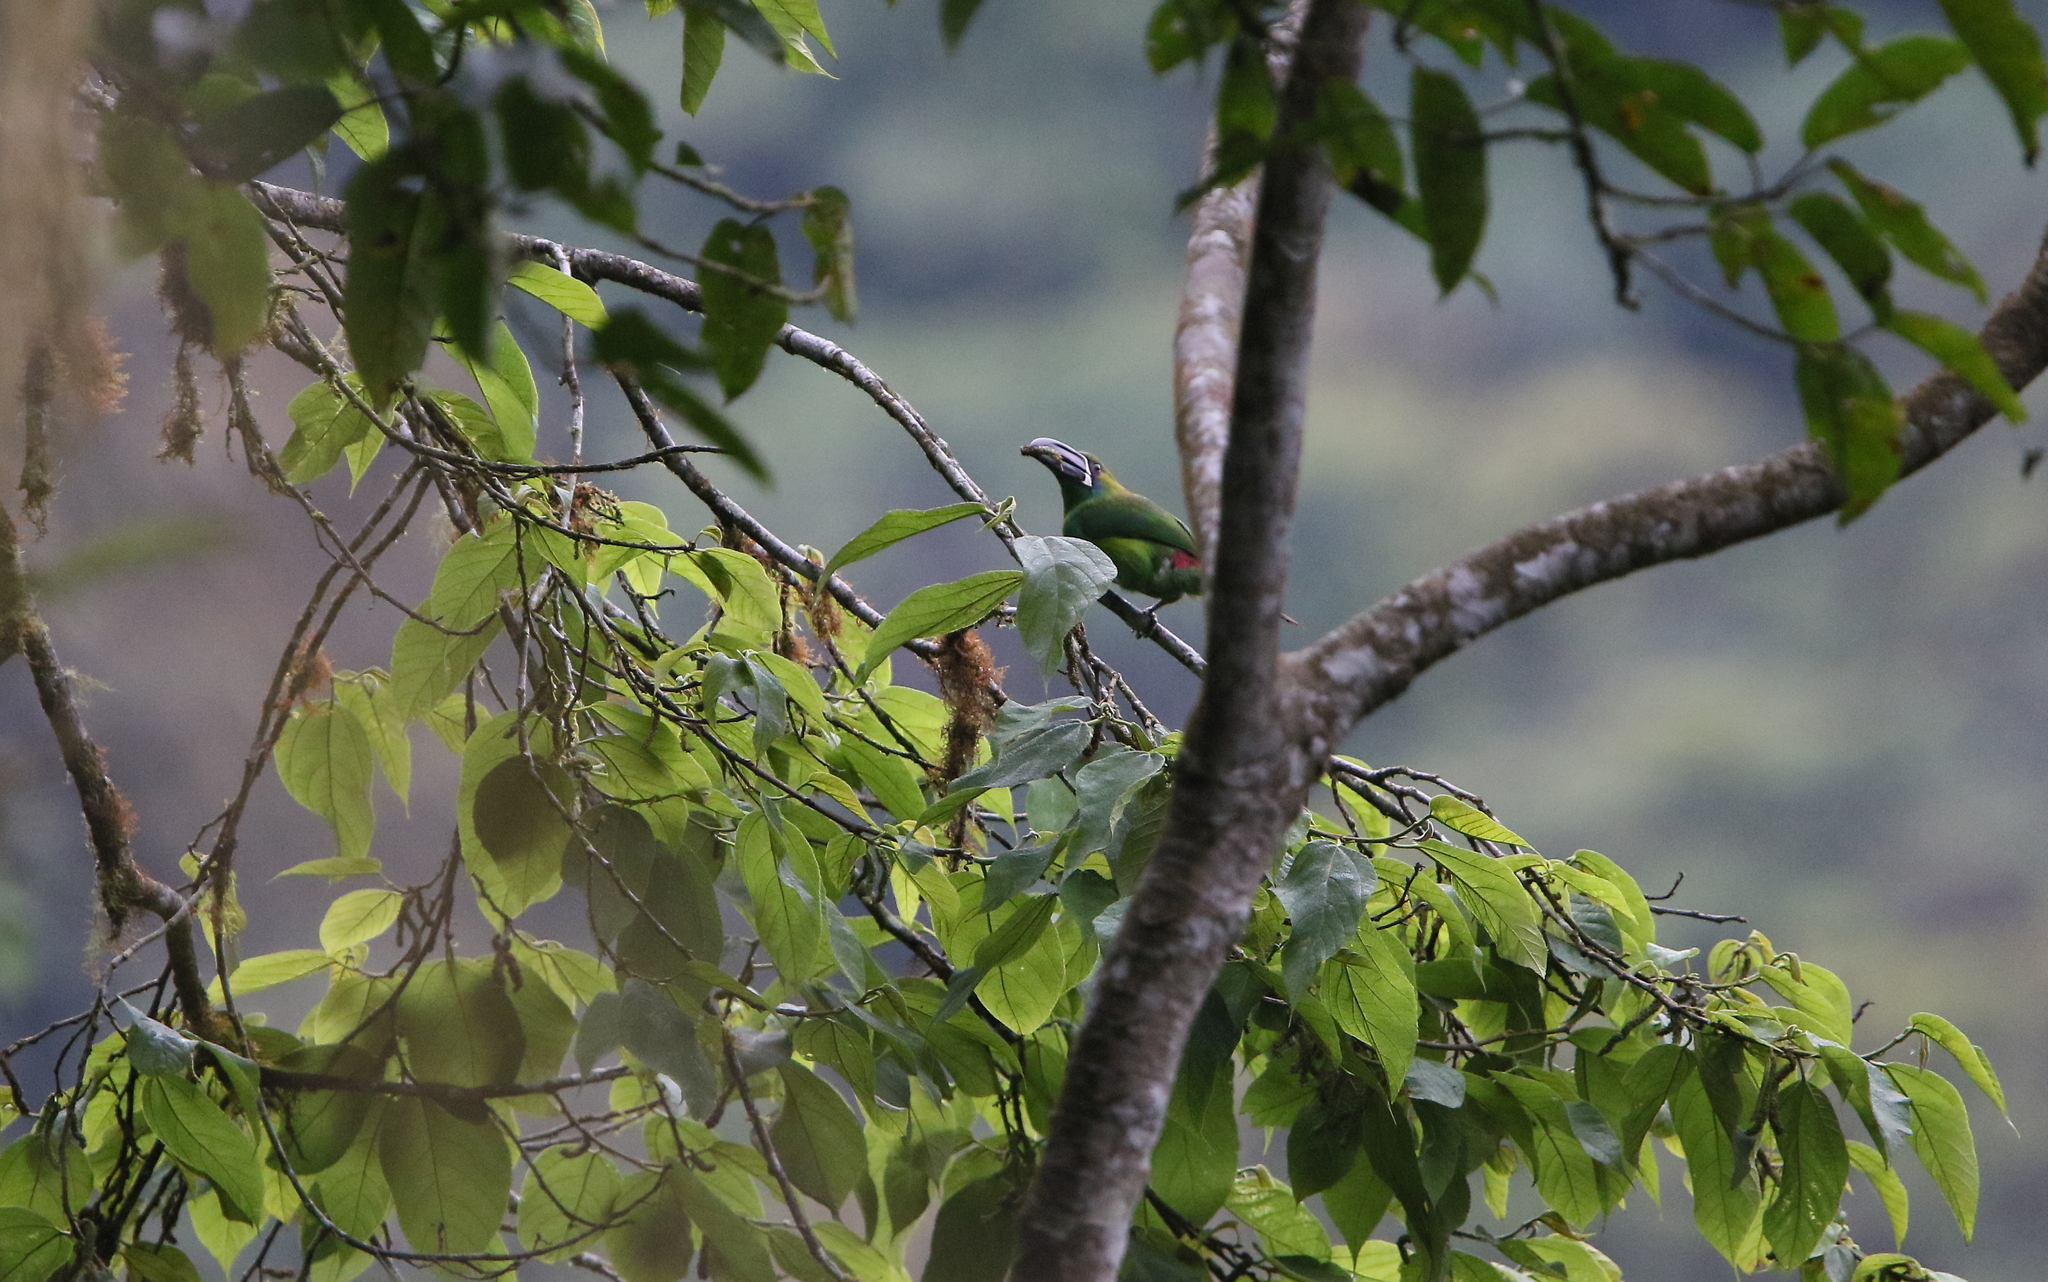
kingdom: Animalia
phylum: Chordata
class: Aves
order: Piciformes
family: Ramphastidae
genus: Aulacorhynchus
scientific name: Aulacorhynchus haematopygus
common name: Crimson-rumped toucanet
